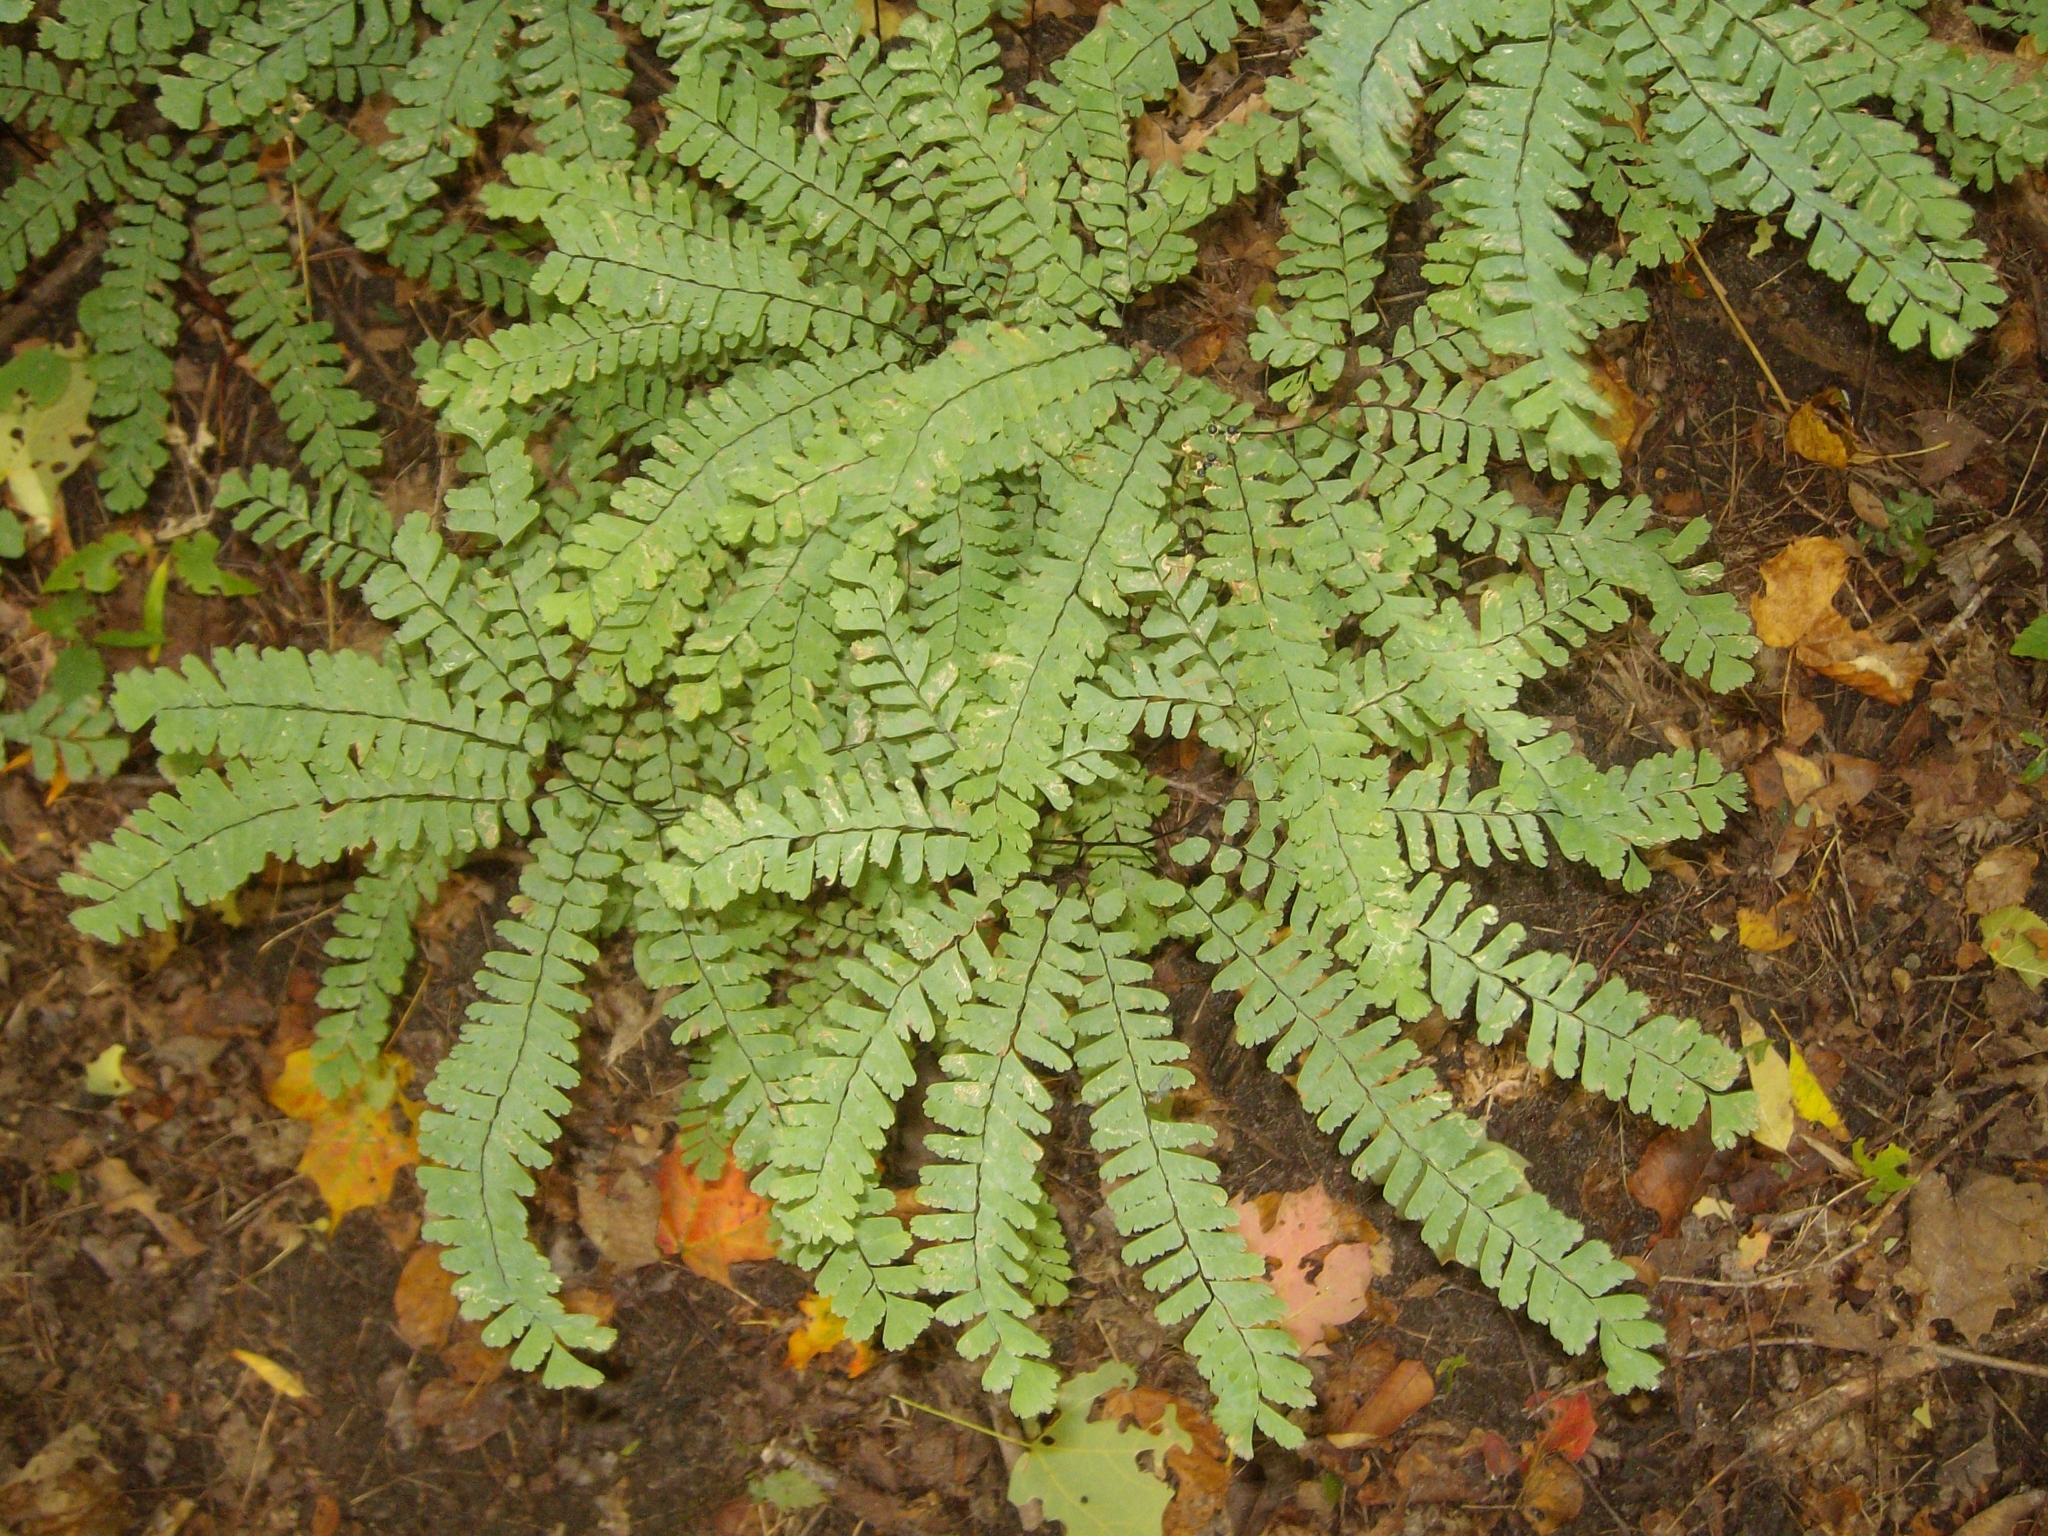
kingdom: Plantae
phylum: Tracheophyta
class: Polypodiopsida
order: Polypodiales
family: Pteridaceae
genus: Adiantum
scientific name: Adiantum pedatum
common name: Five-finger fern
